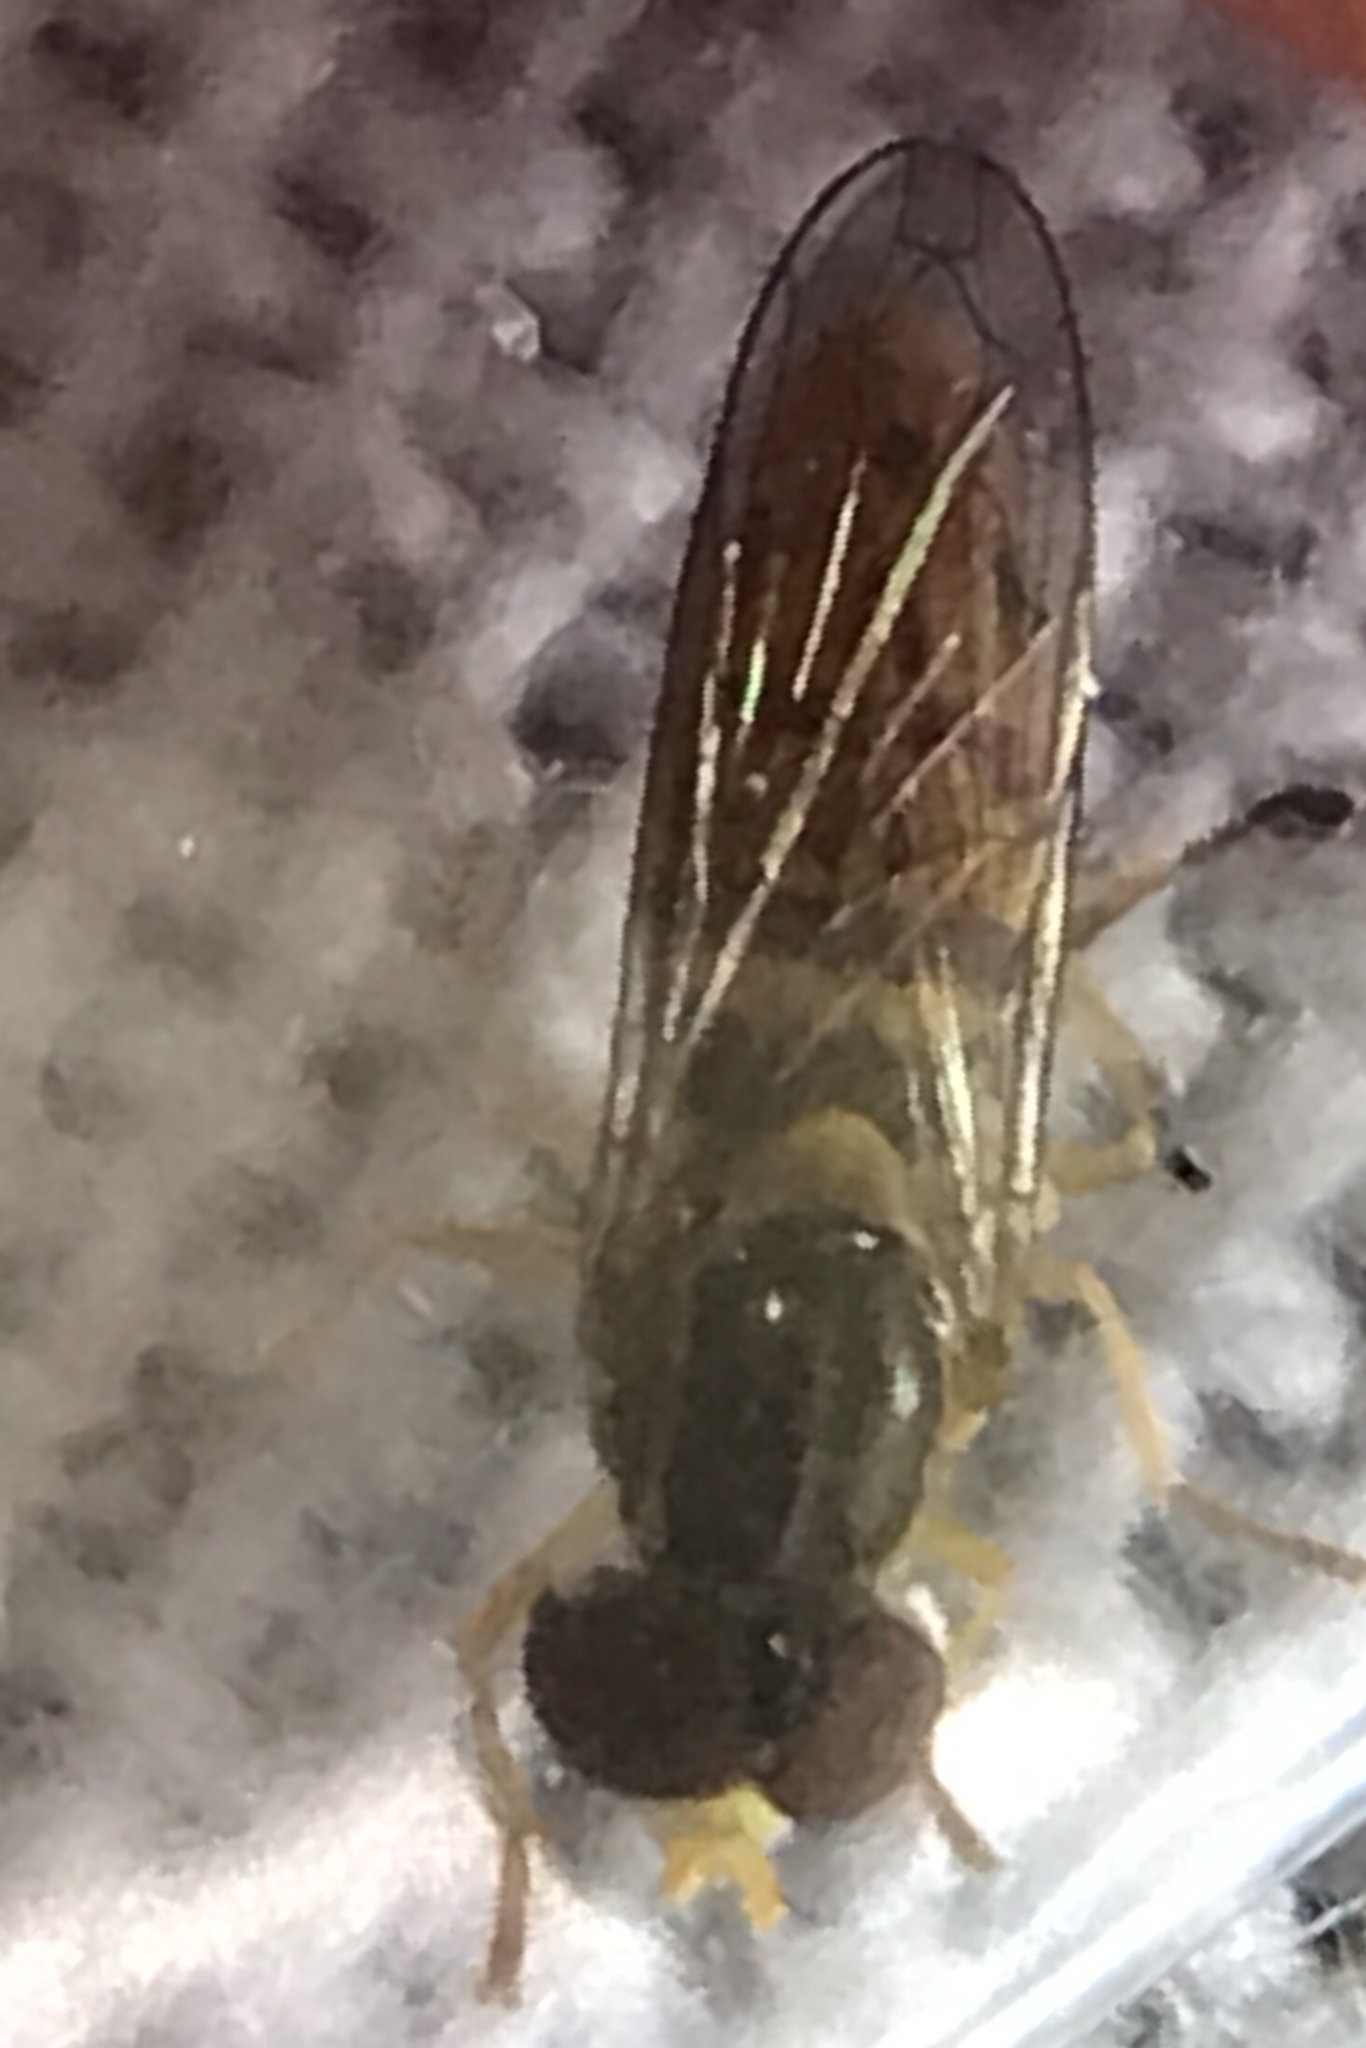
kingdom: Animalia
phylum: Arthropoda
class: Insecta
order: Diptera
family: Syrphidae
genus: Toxomerus
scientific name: Toxomerus marginatus
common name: Syrphid fly
